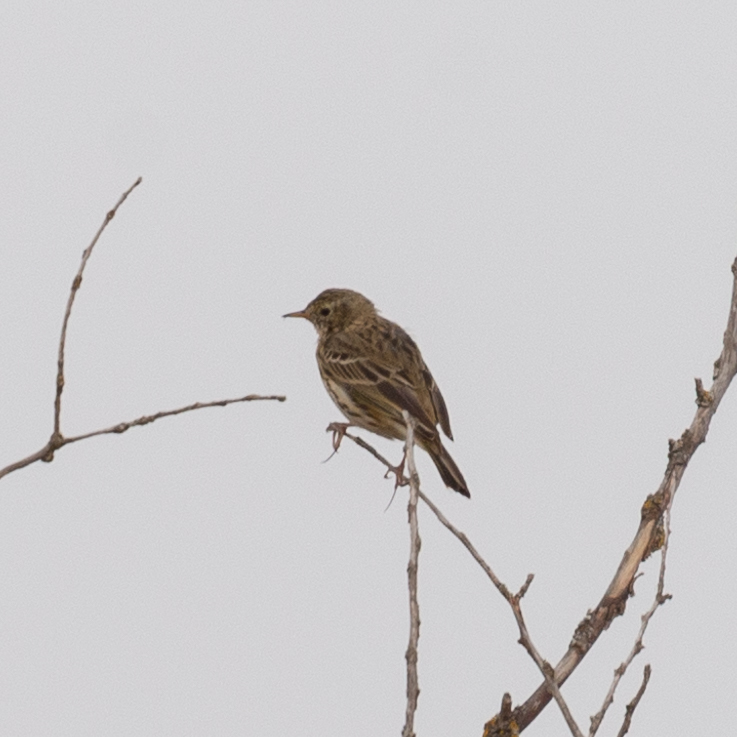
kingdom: Animalia
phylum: Chordata
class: Aves
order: Passeriformes
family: Motacillidae
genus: Anthus
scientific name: Anthus pratensis
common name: Meadow pipit
